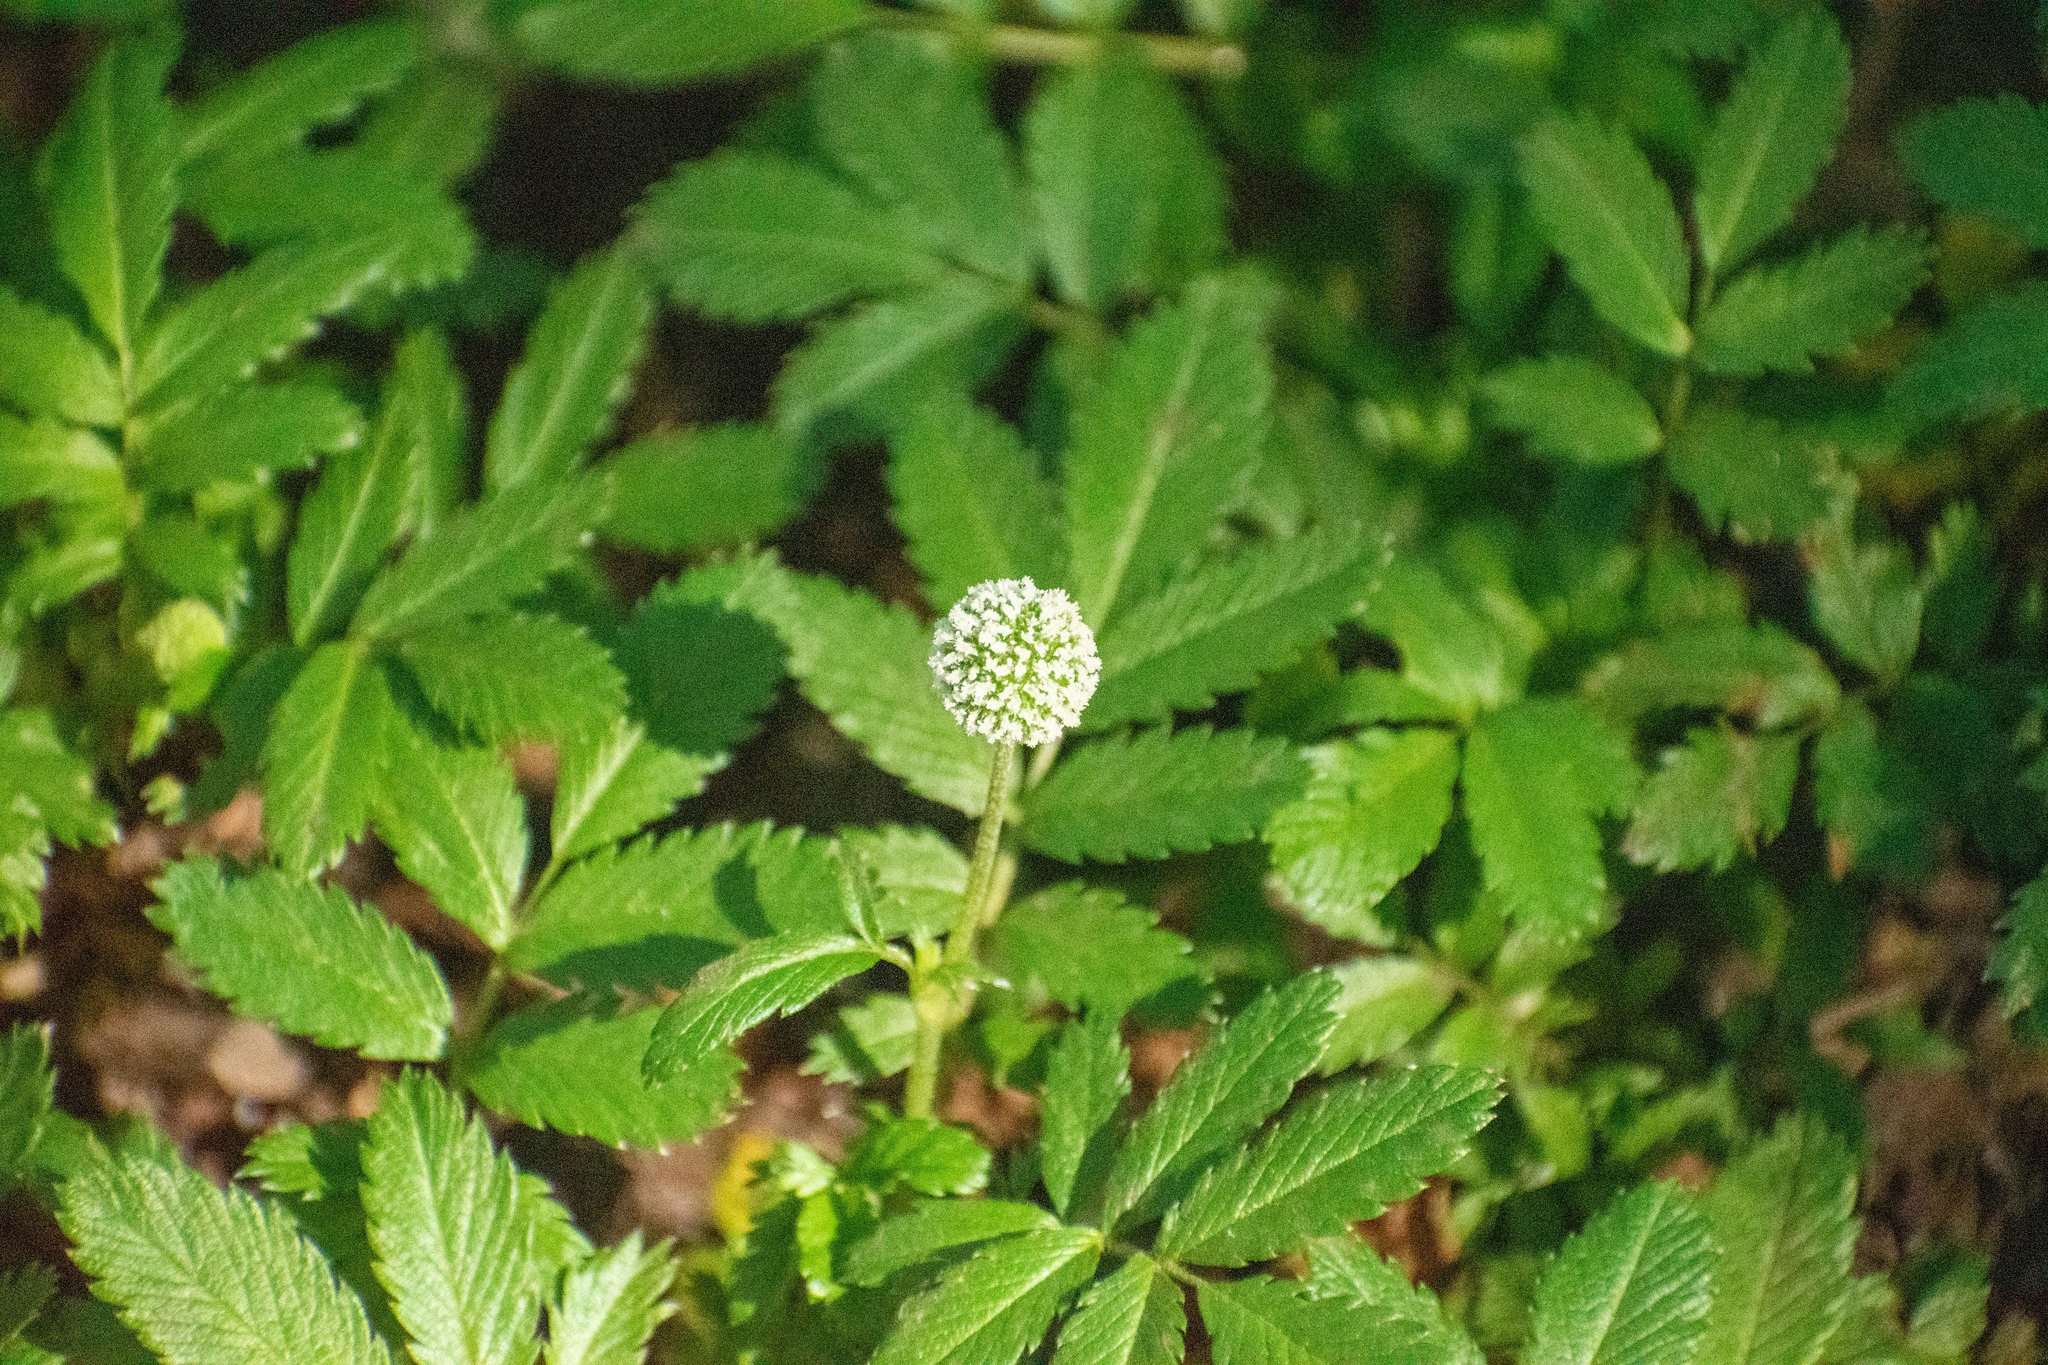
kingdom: Plantae
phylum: Tracheophyta
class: Magnoliopsida
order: Rosales
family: Rosaceae
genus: Acaena
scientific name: Acaena ovalifolia
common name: Two-spined acaena
